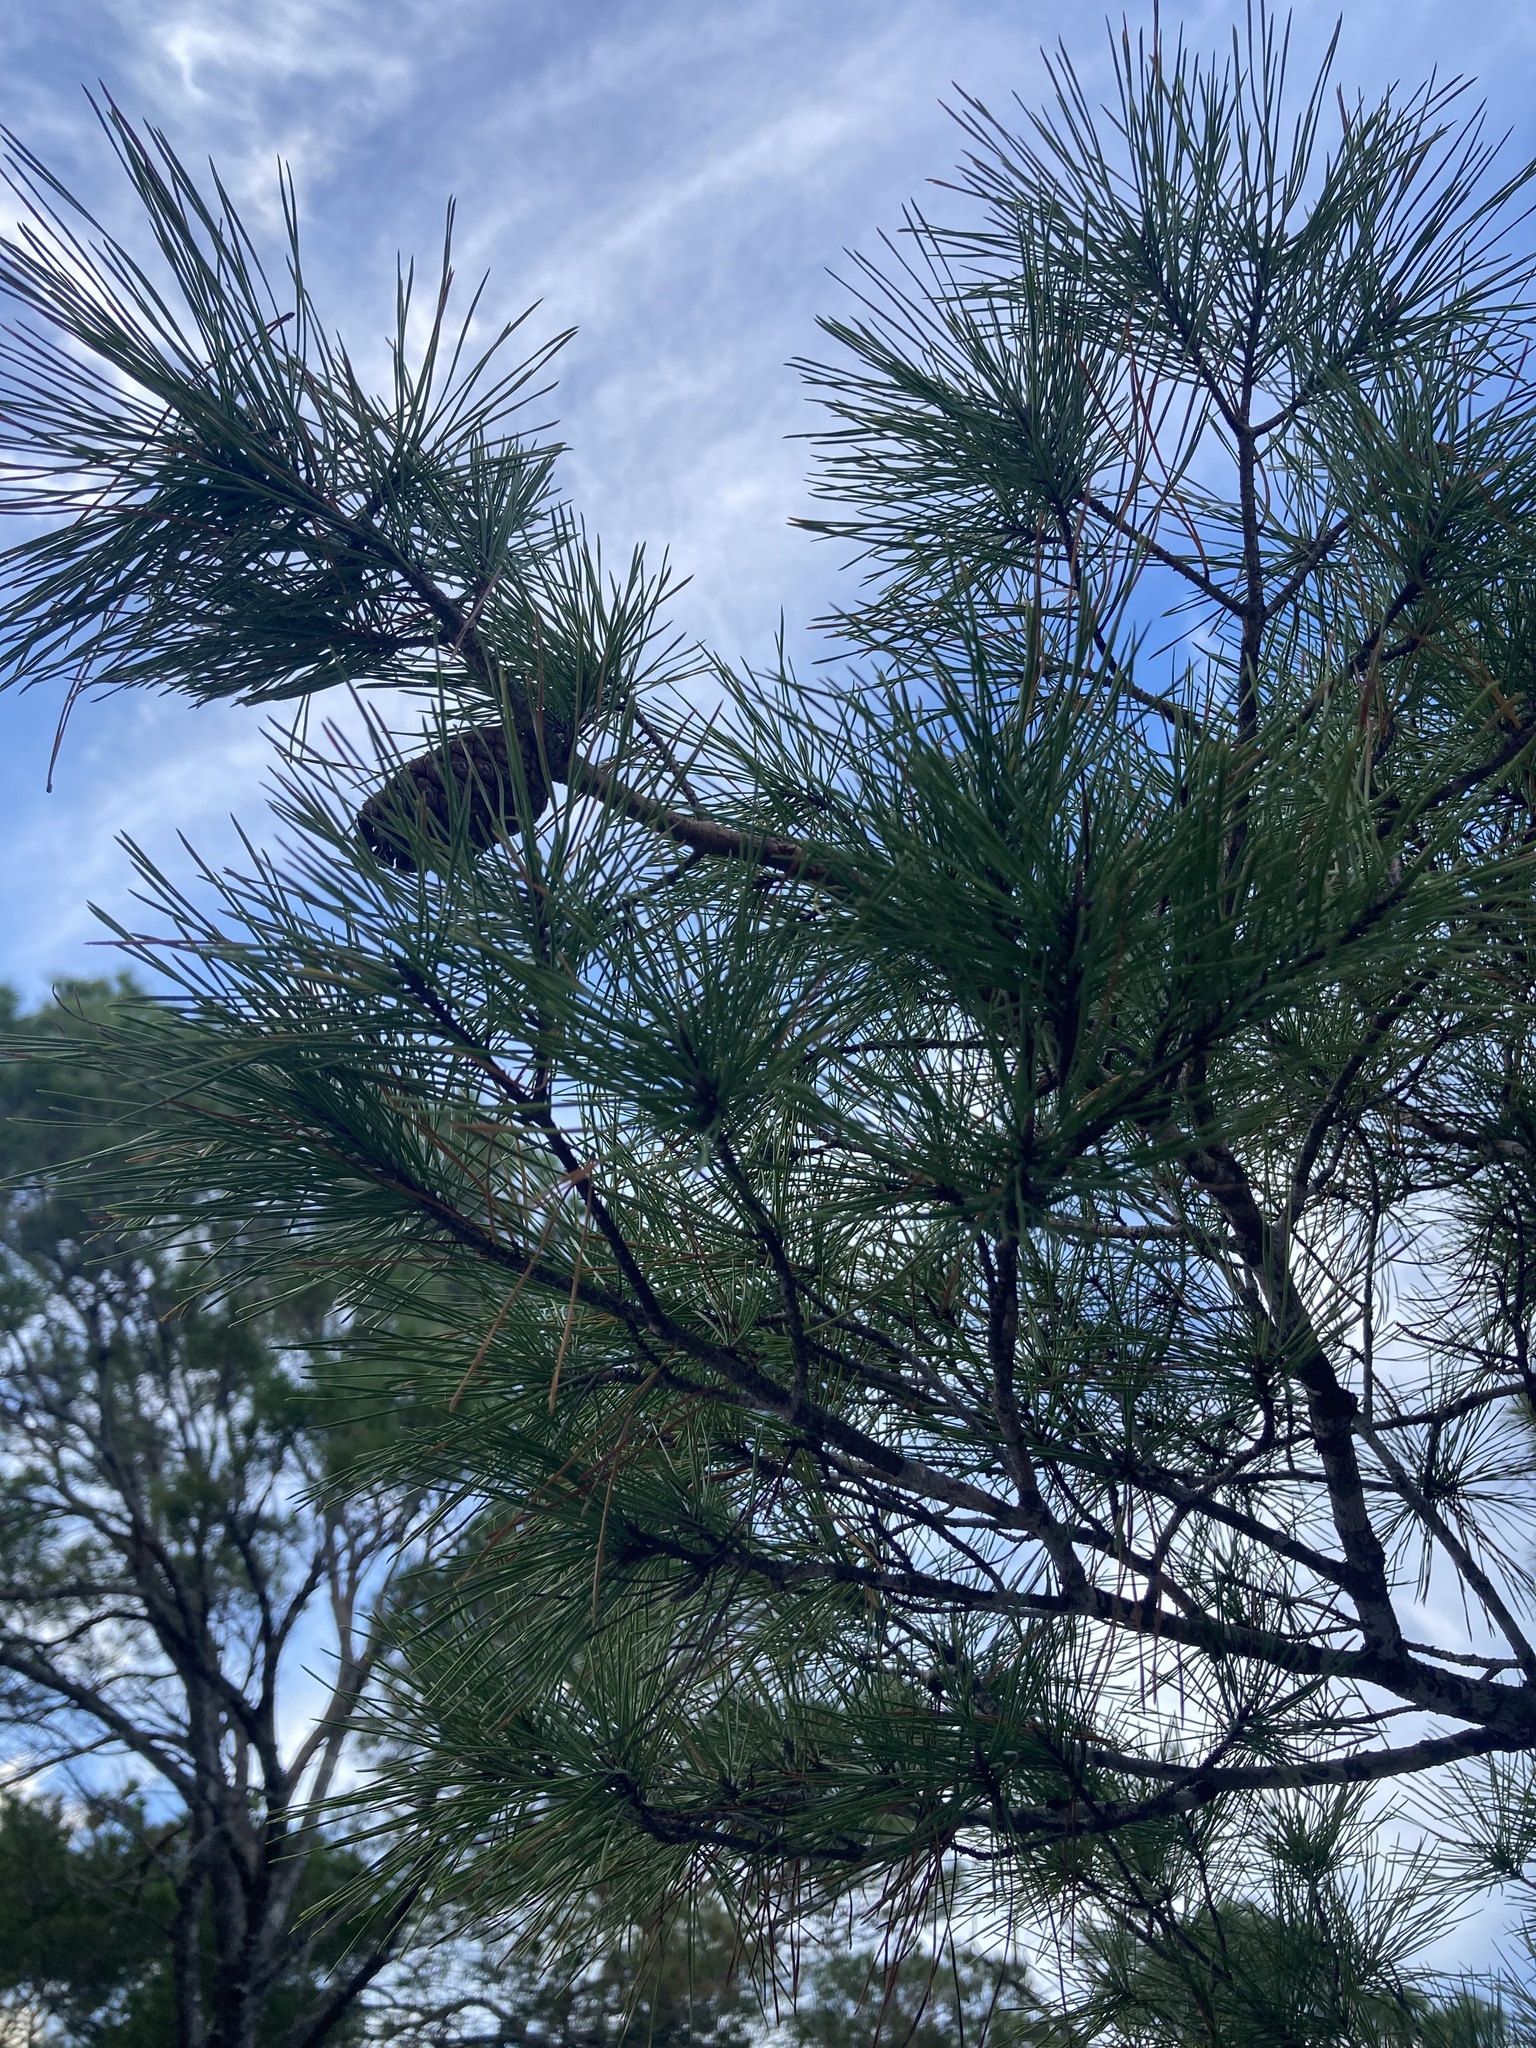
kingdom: Plantae
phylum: Tracheophyta
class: Pinopsida
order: Pinales
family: Pinaceae
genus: Pinus
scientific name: Pinus clausa
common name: Sand pine
